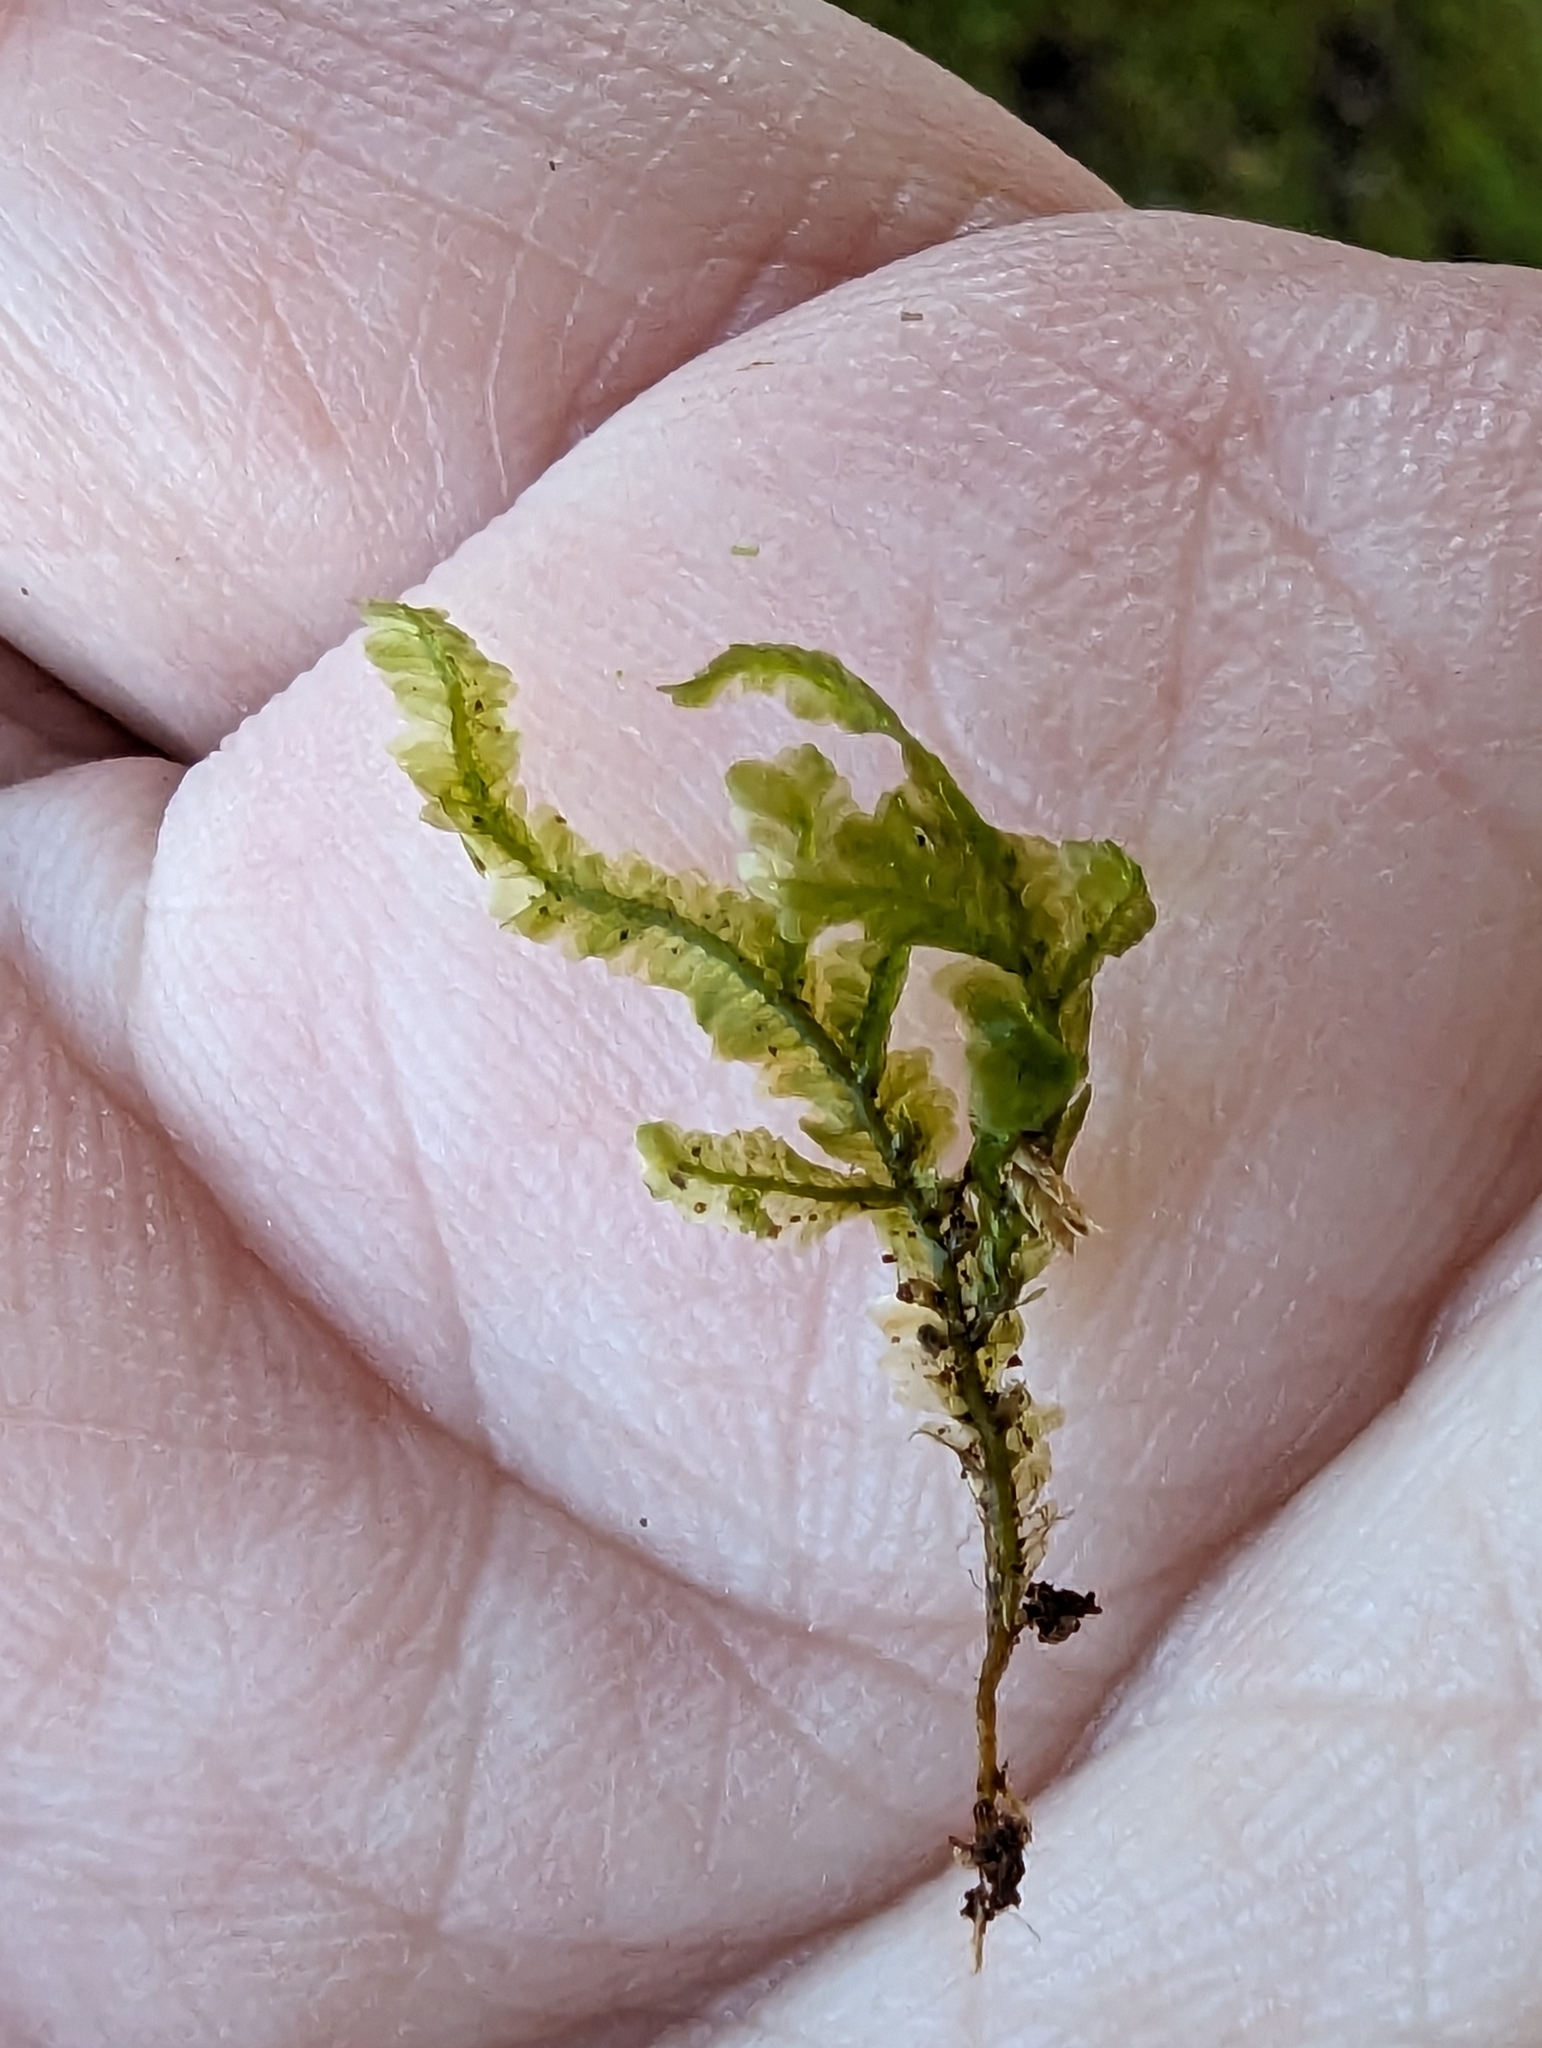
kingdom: Plantae
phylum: Bryophyta
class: Bryopsida
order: Hypnales
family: Neckeraceae
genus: Homalia
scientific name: Homalia trichomanoides
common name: Lime homalia moss
